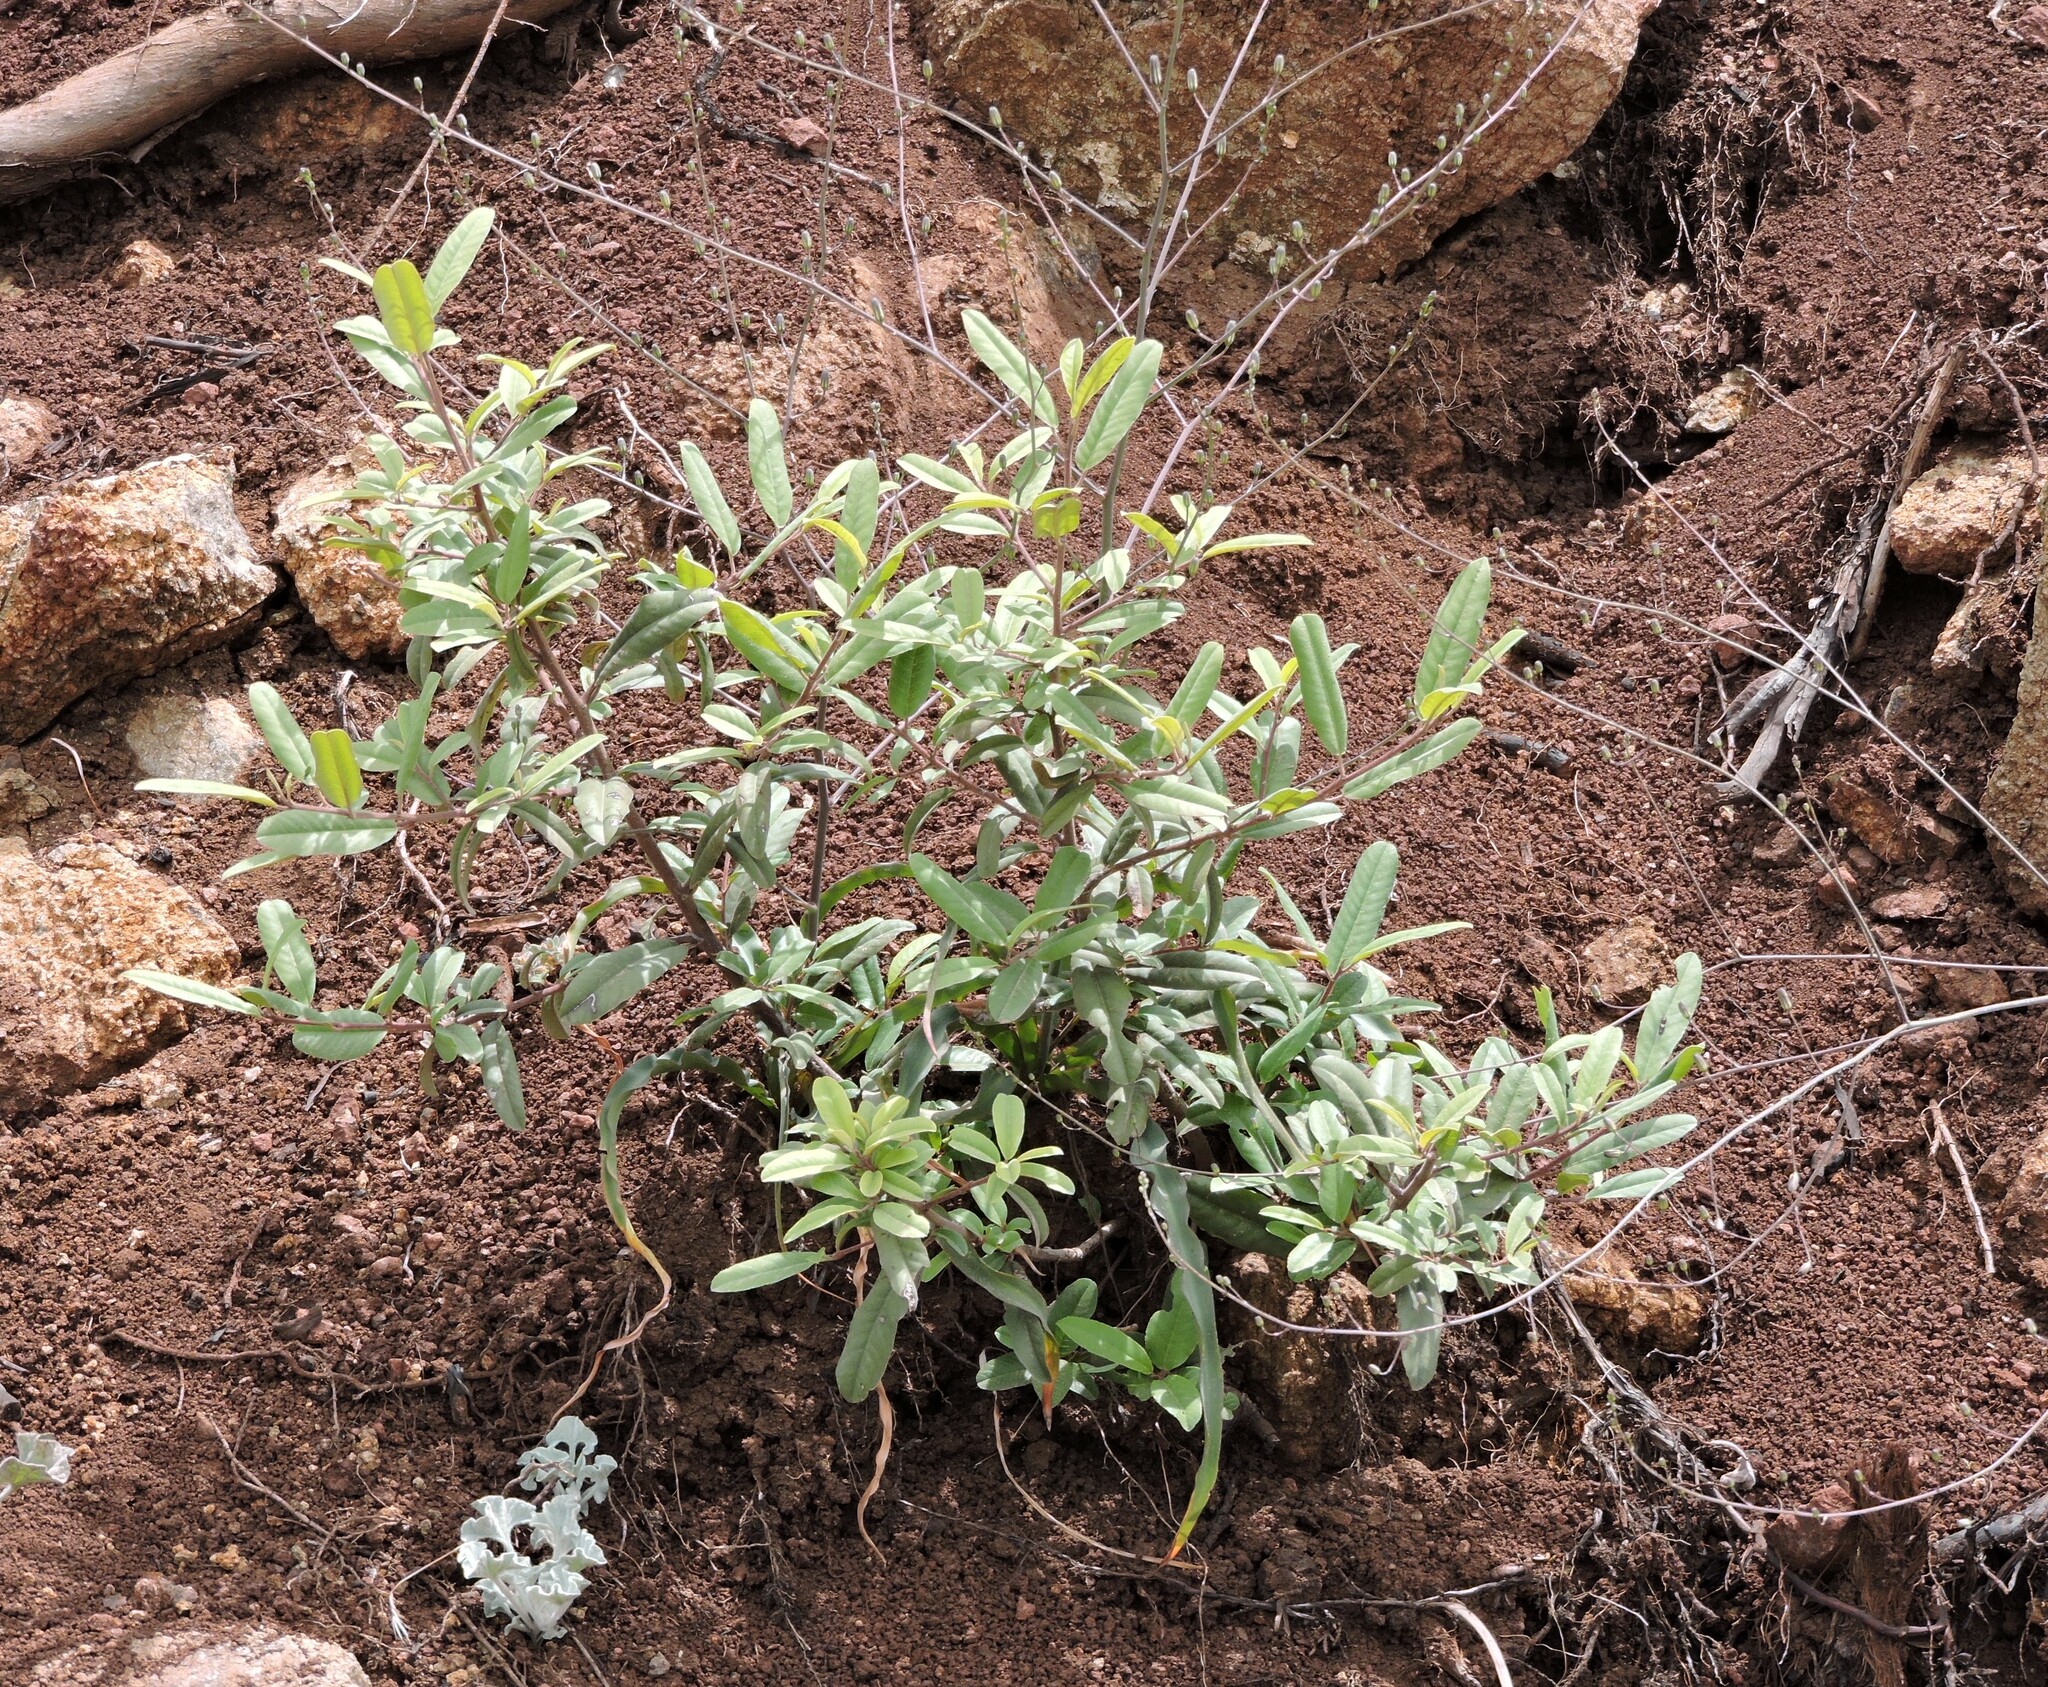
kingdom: Plantae
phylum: Tracheophyta
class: Magnoliopsida
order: Rosales
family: Rhamnaceae
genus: Frangula
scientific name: Frangula californica
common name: California buckthorn
